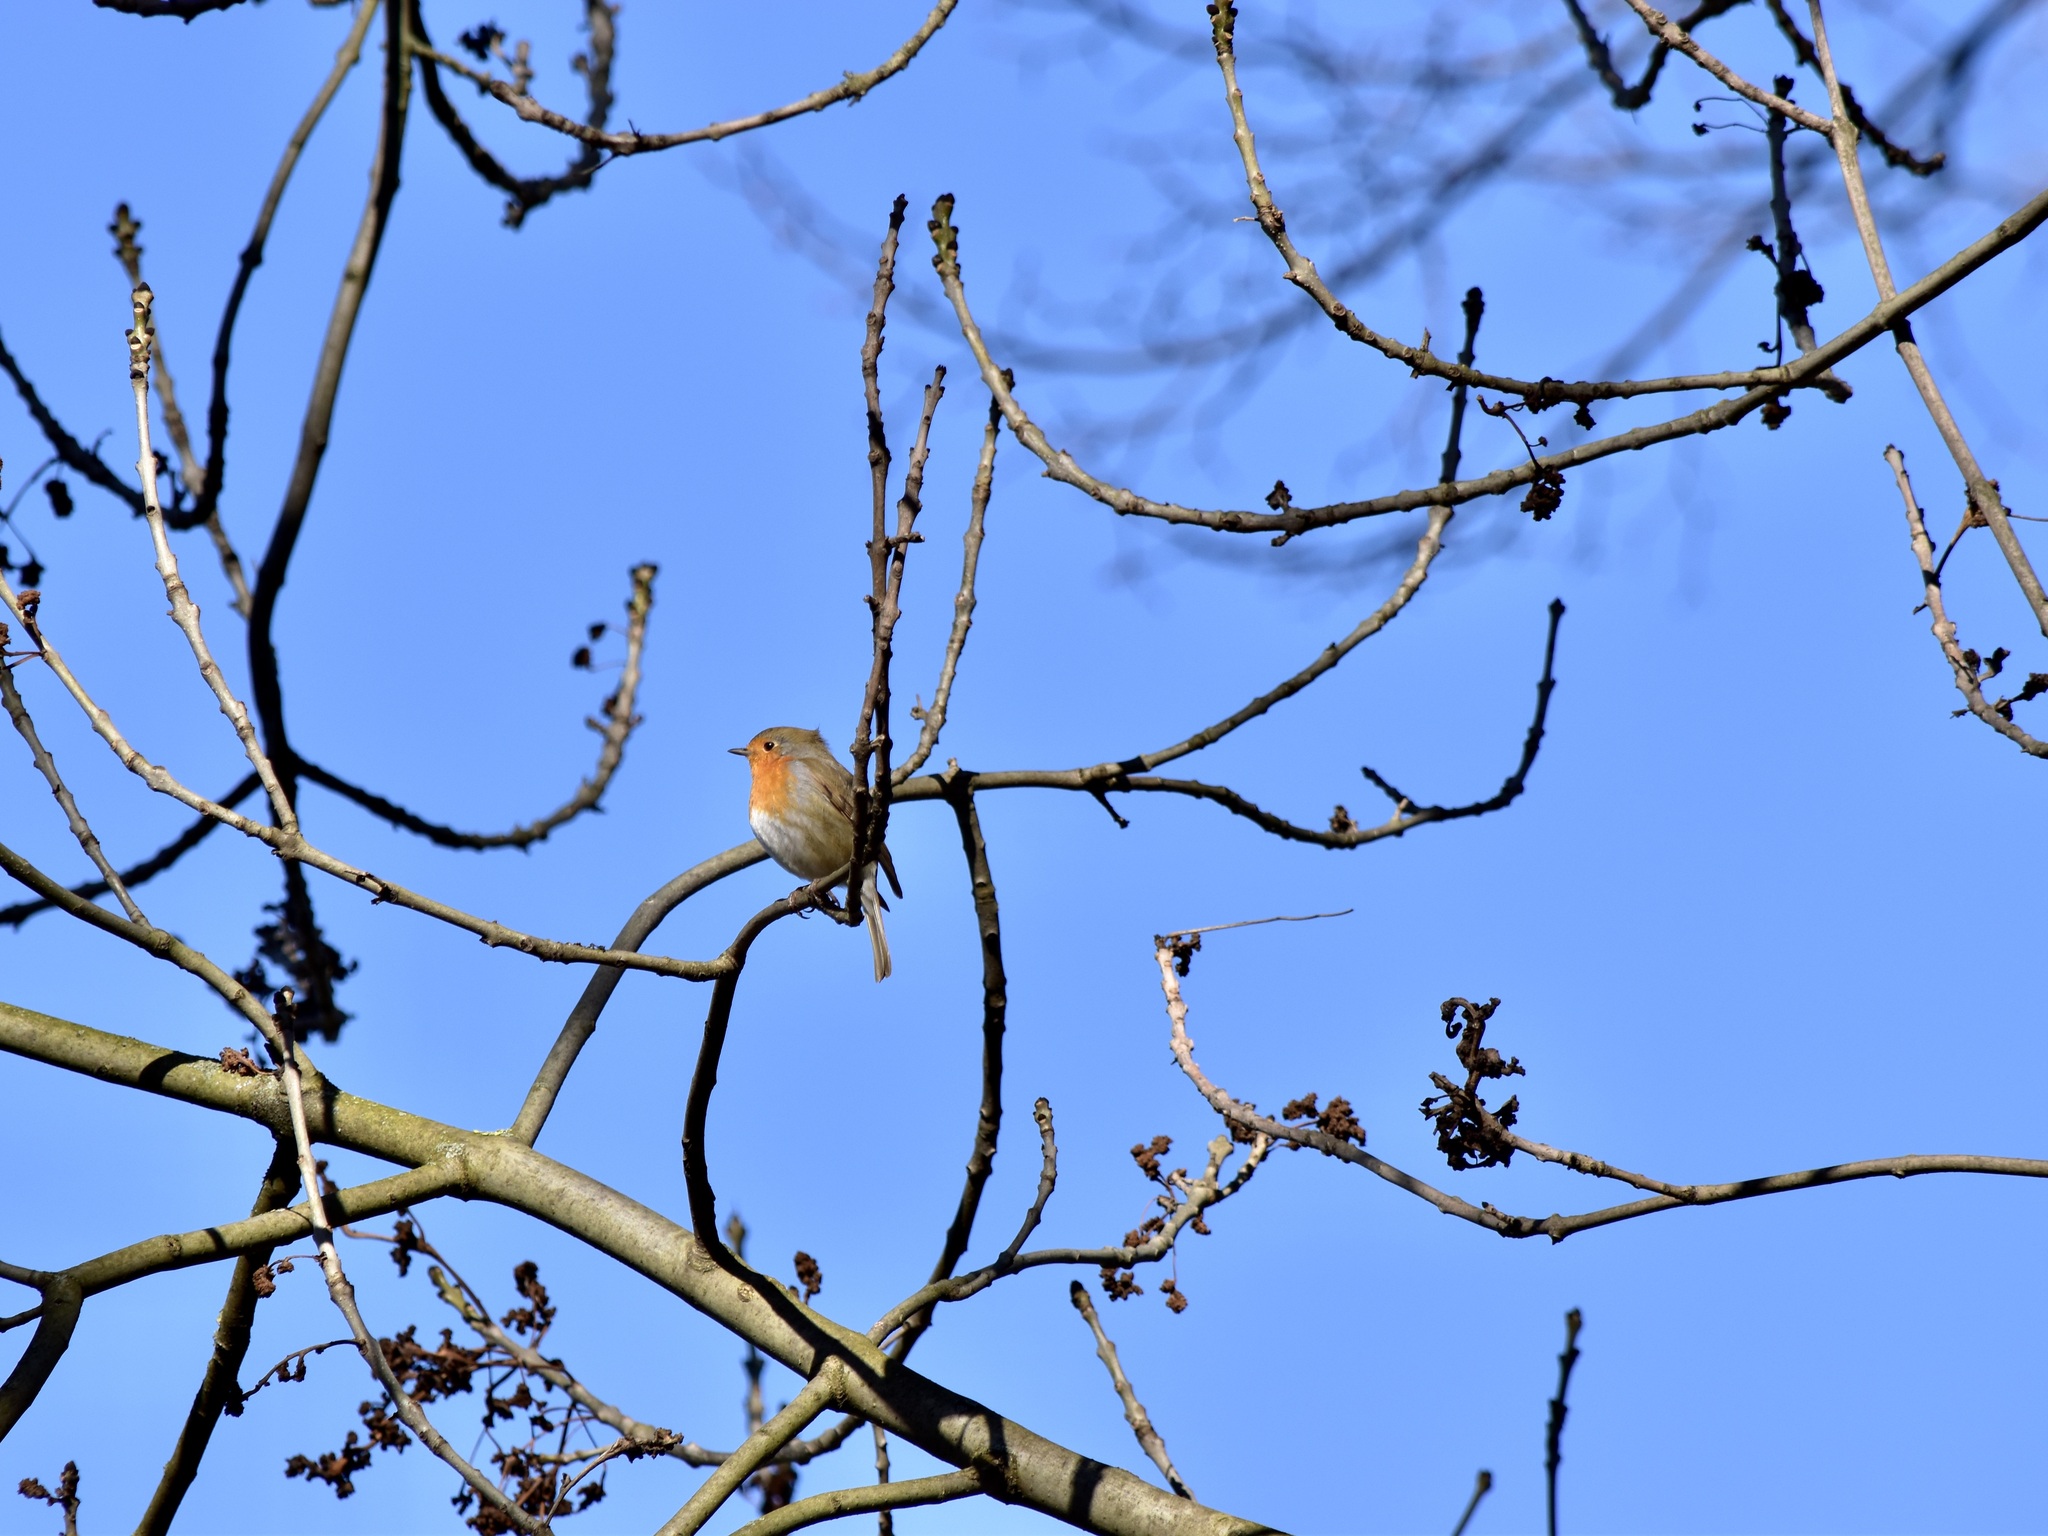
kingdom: Animalia
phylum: Chordata
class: Aves
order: Passeriformes
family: Muscicapidae
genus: Erithacus
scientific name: Erithacus rubecula
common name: European robin
